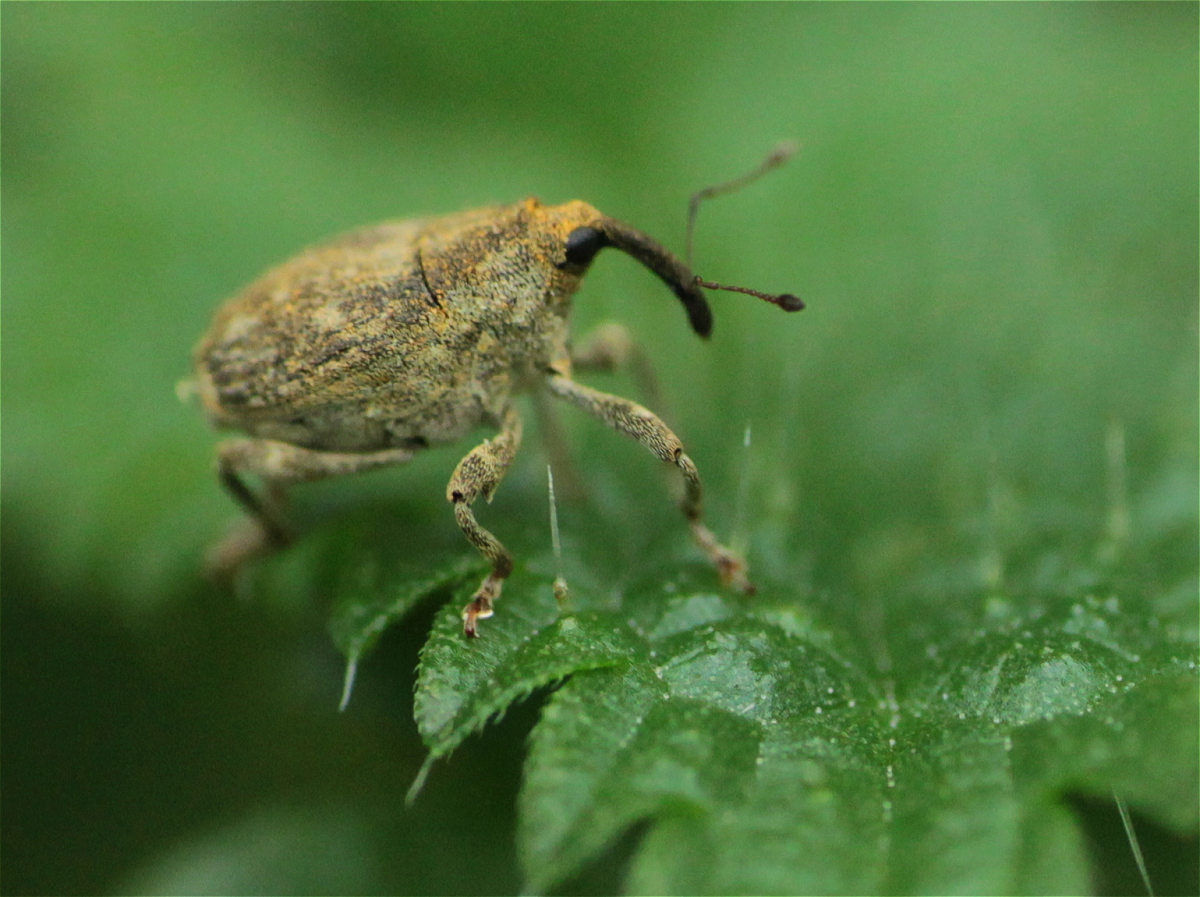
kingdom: Animalia
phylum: Arthropoda
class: Insecta
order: Coleoptera
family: Curculionidae
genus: Parethelcus
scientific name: Parethelcus pollinarius
